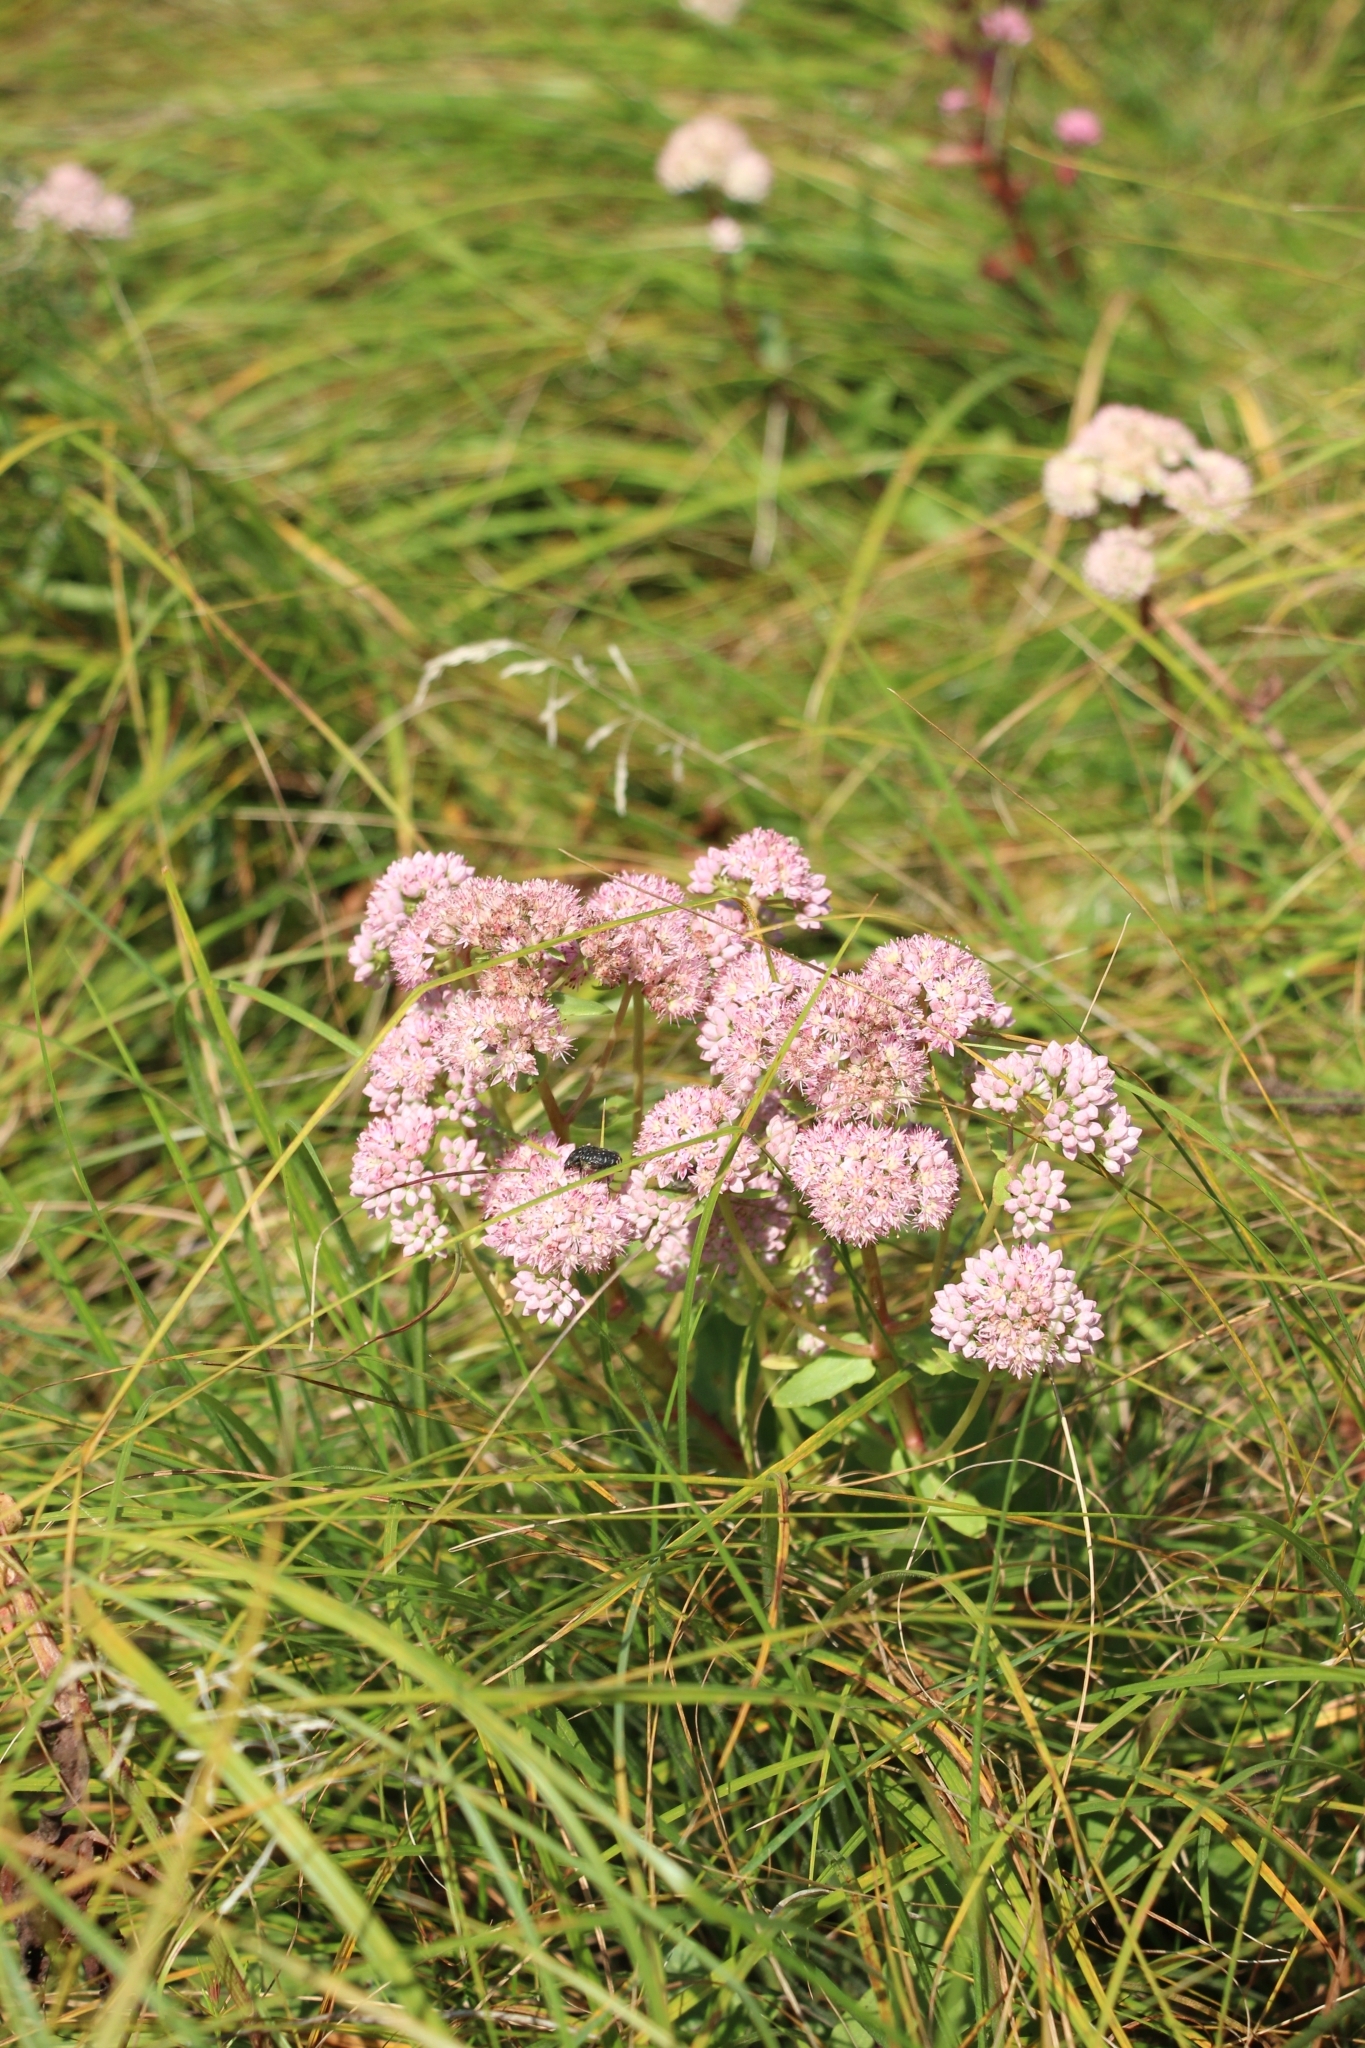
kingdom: Plantae
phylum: Tracheophyta
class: Magnoliopsida
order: Saxifragales
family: Crassulaceae
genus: Hylotelephium
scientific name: Hylotelephium maximum
